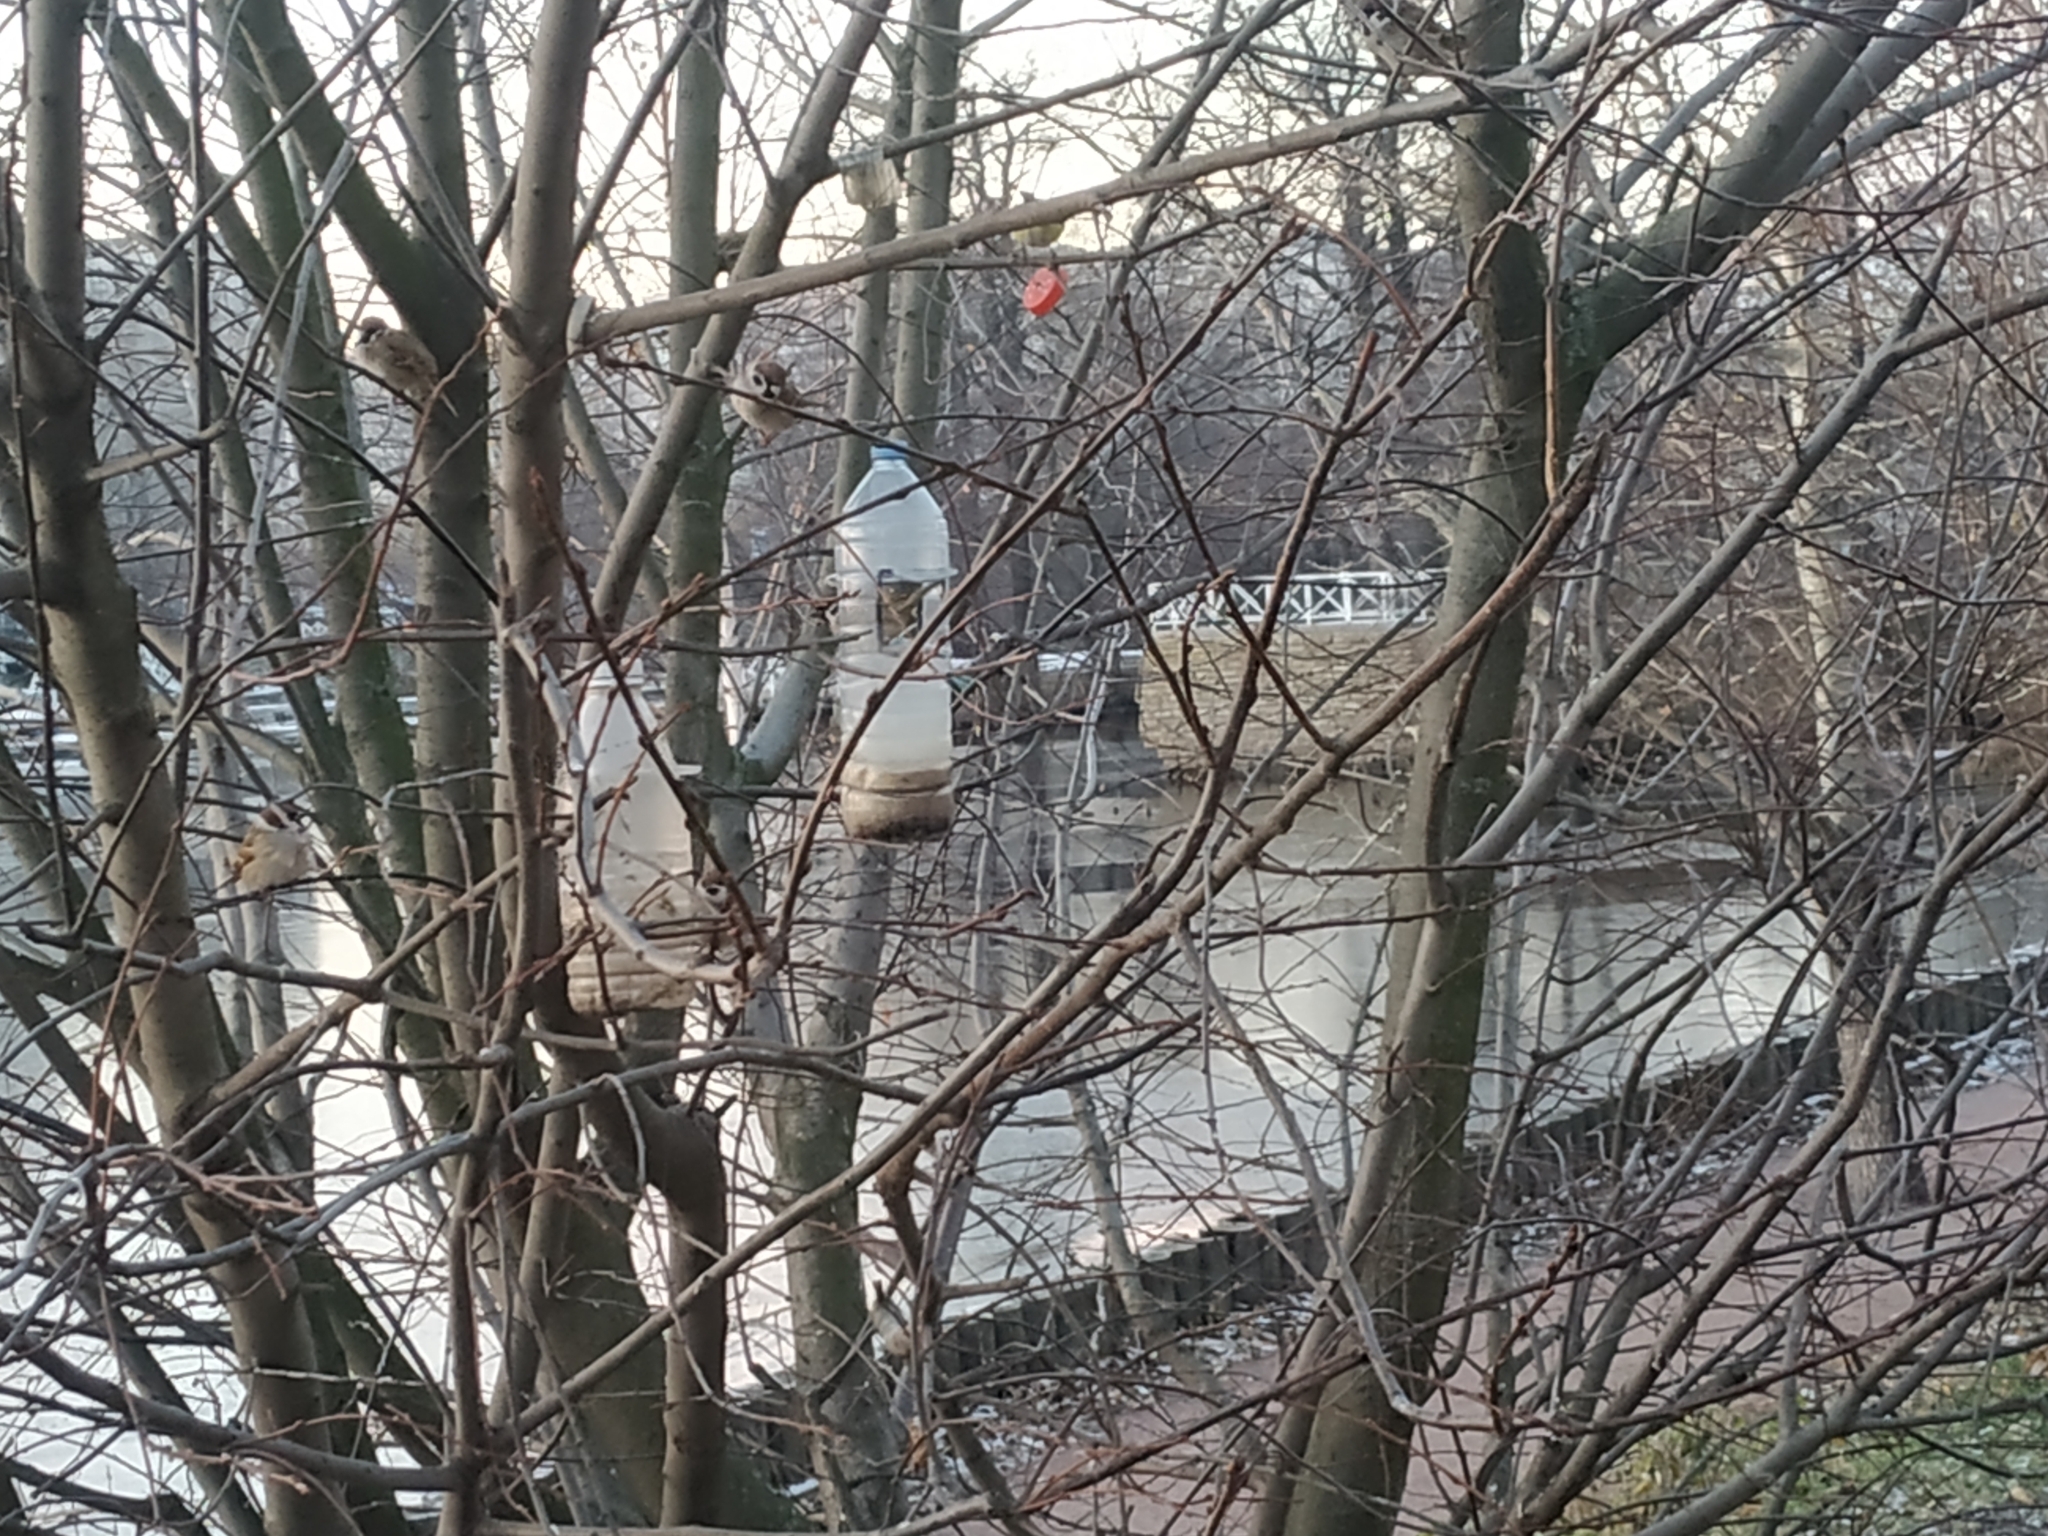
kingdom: Animalia
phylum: Chordata
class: Aves
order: Passeriformes
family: Passeridae
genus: Passer
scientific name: Passer montanus
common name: Eurasian tree sparrow
